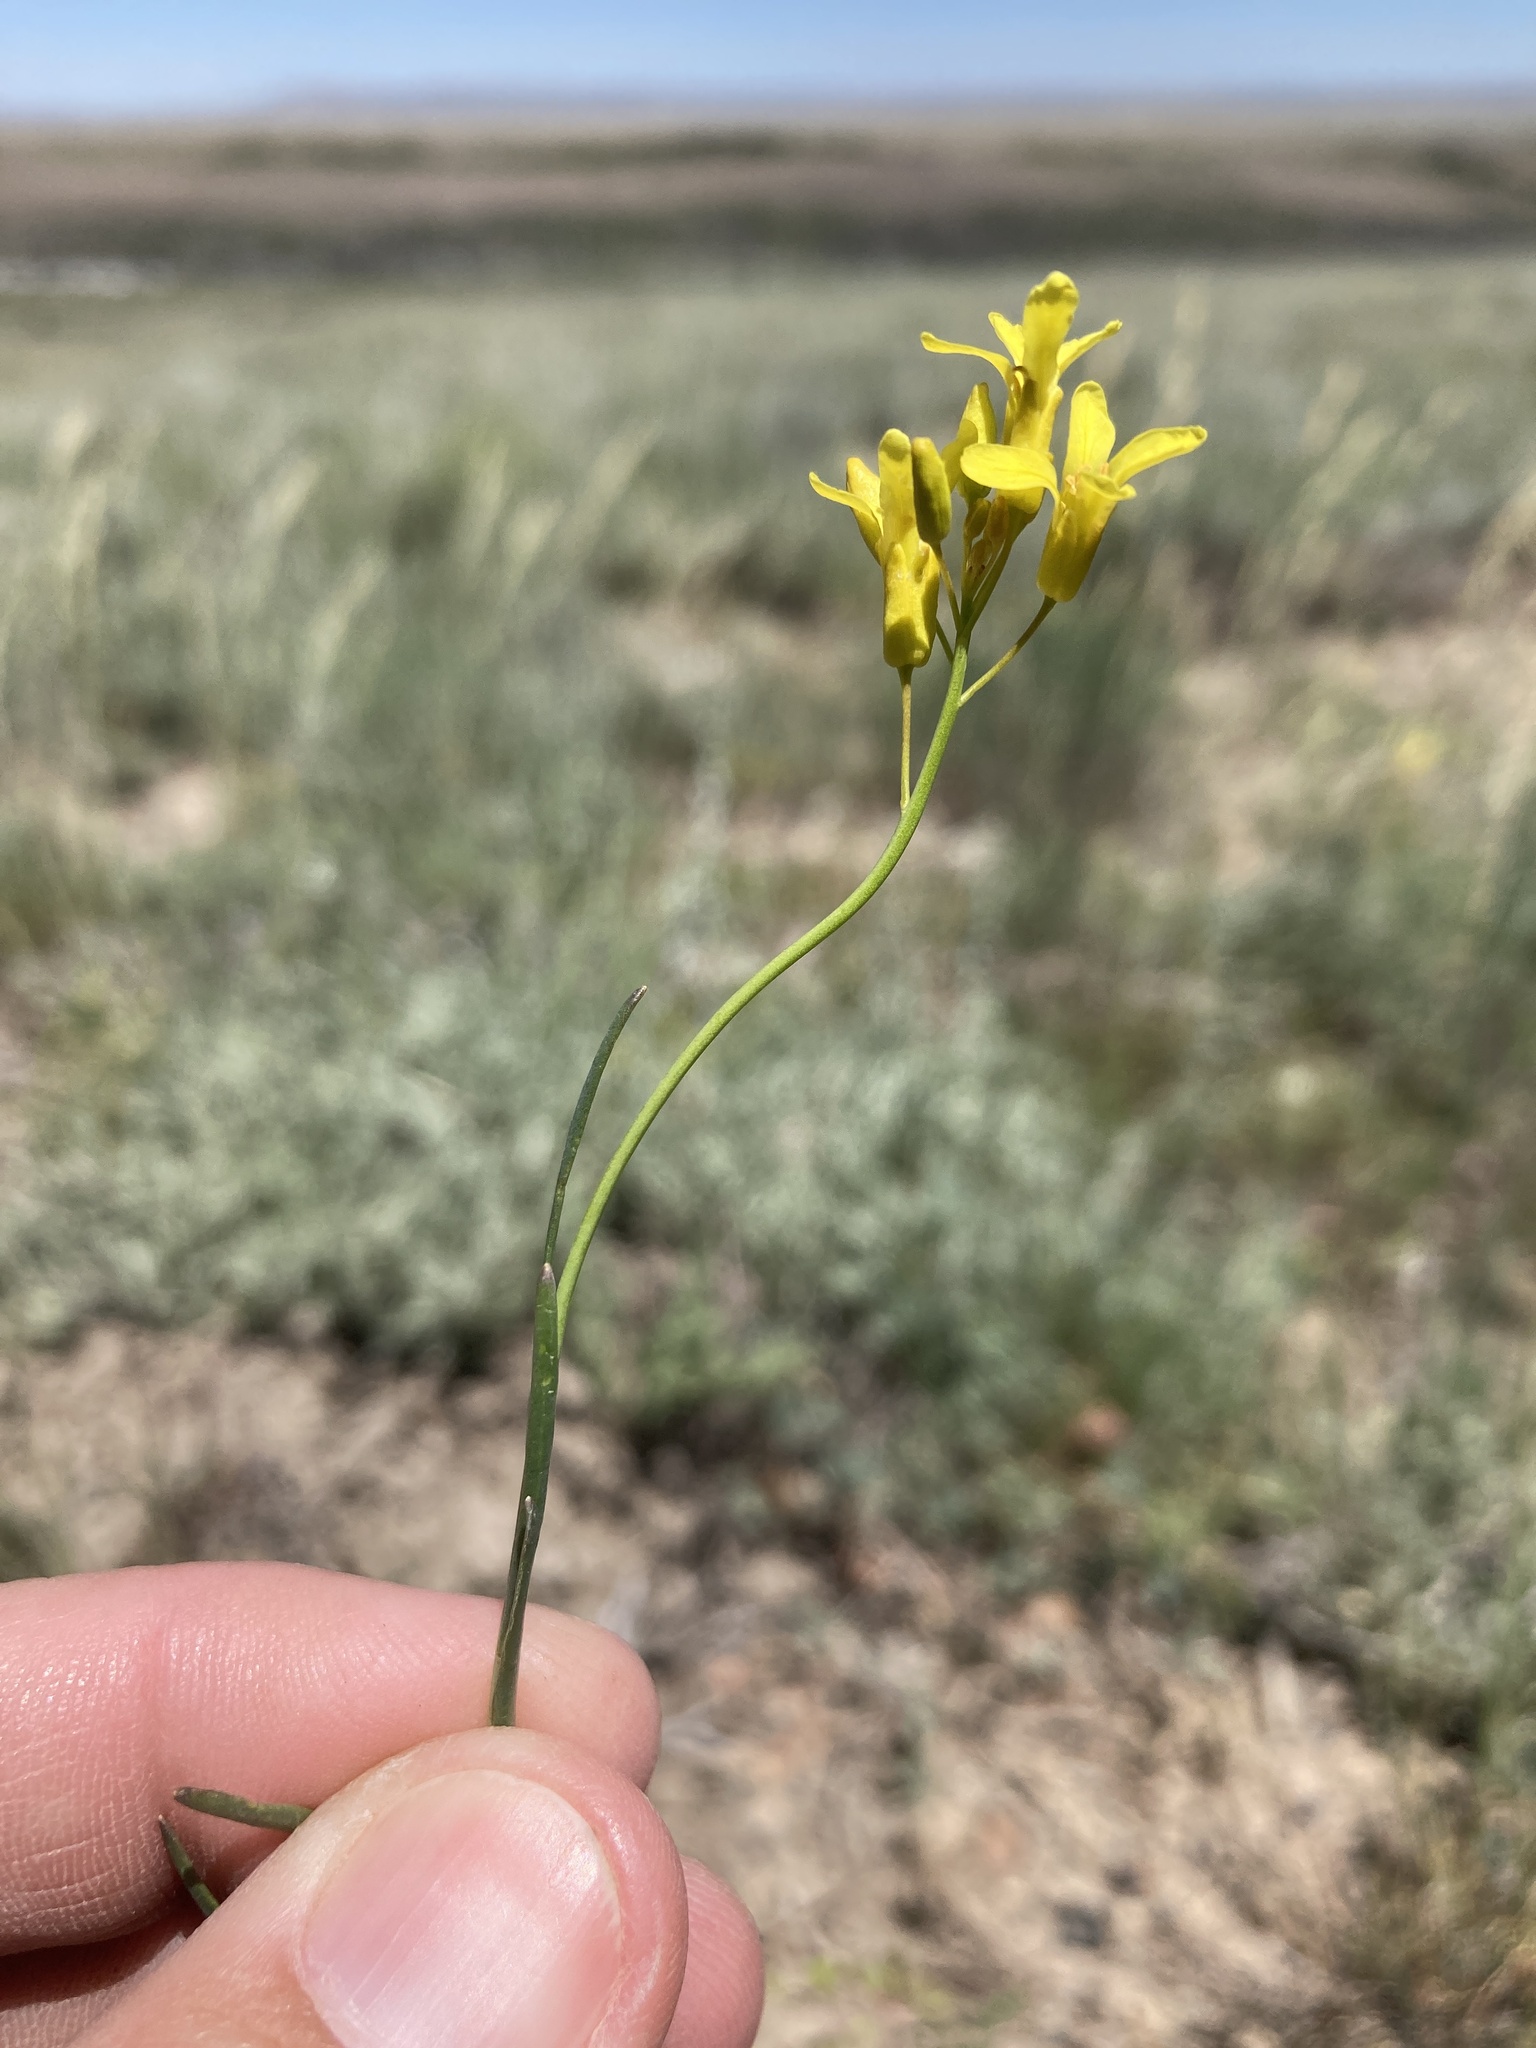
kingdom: Plantae
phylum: Tracheophyta
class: Magnoliopsida
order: Brassicales
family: Brassicaceae
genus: Sisymbrium
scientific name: Sisymbrium linifolium
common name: Salmon river plains mustard
